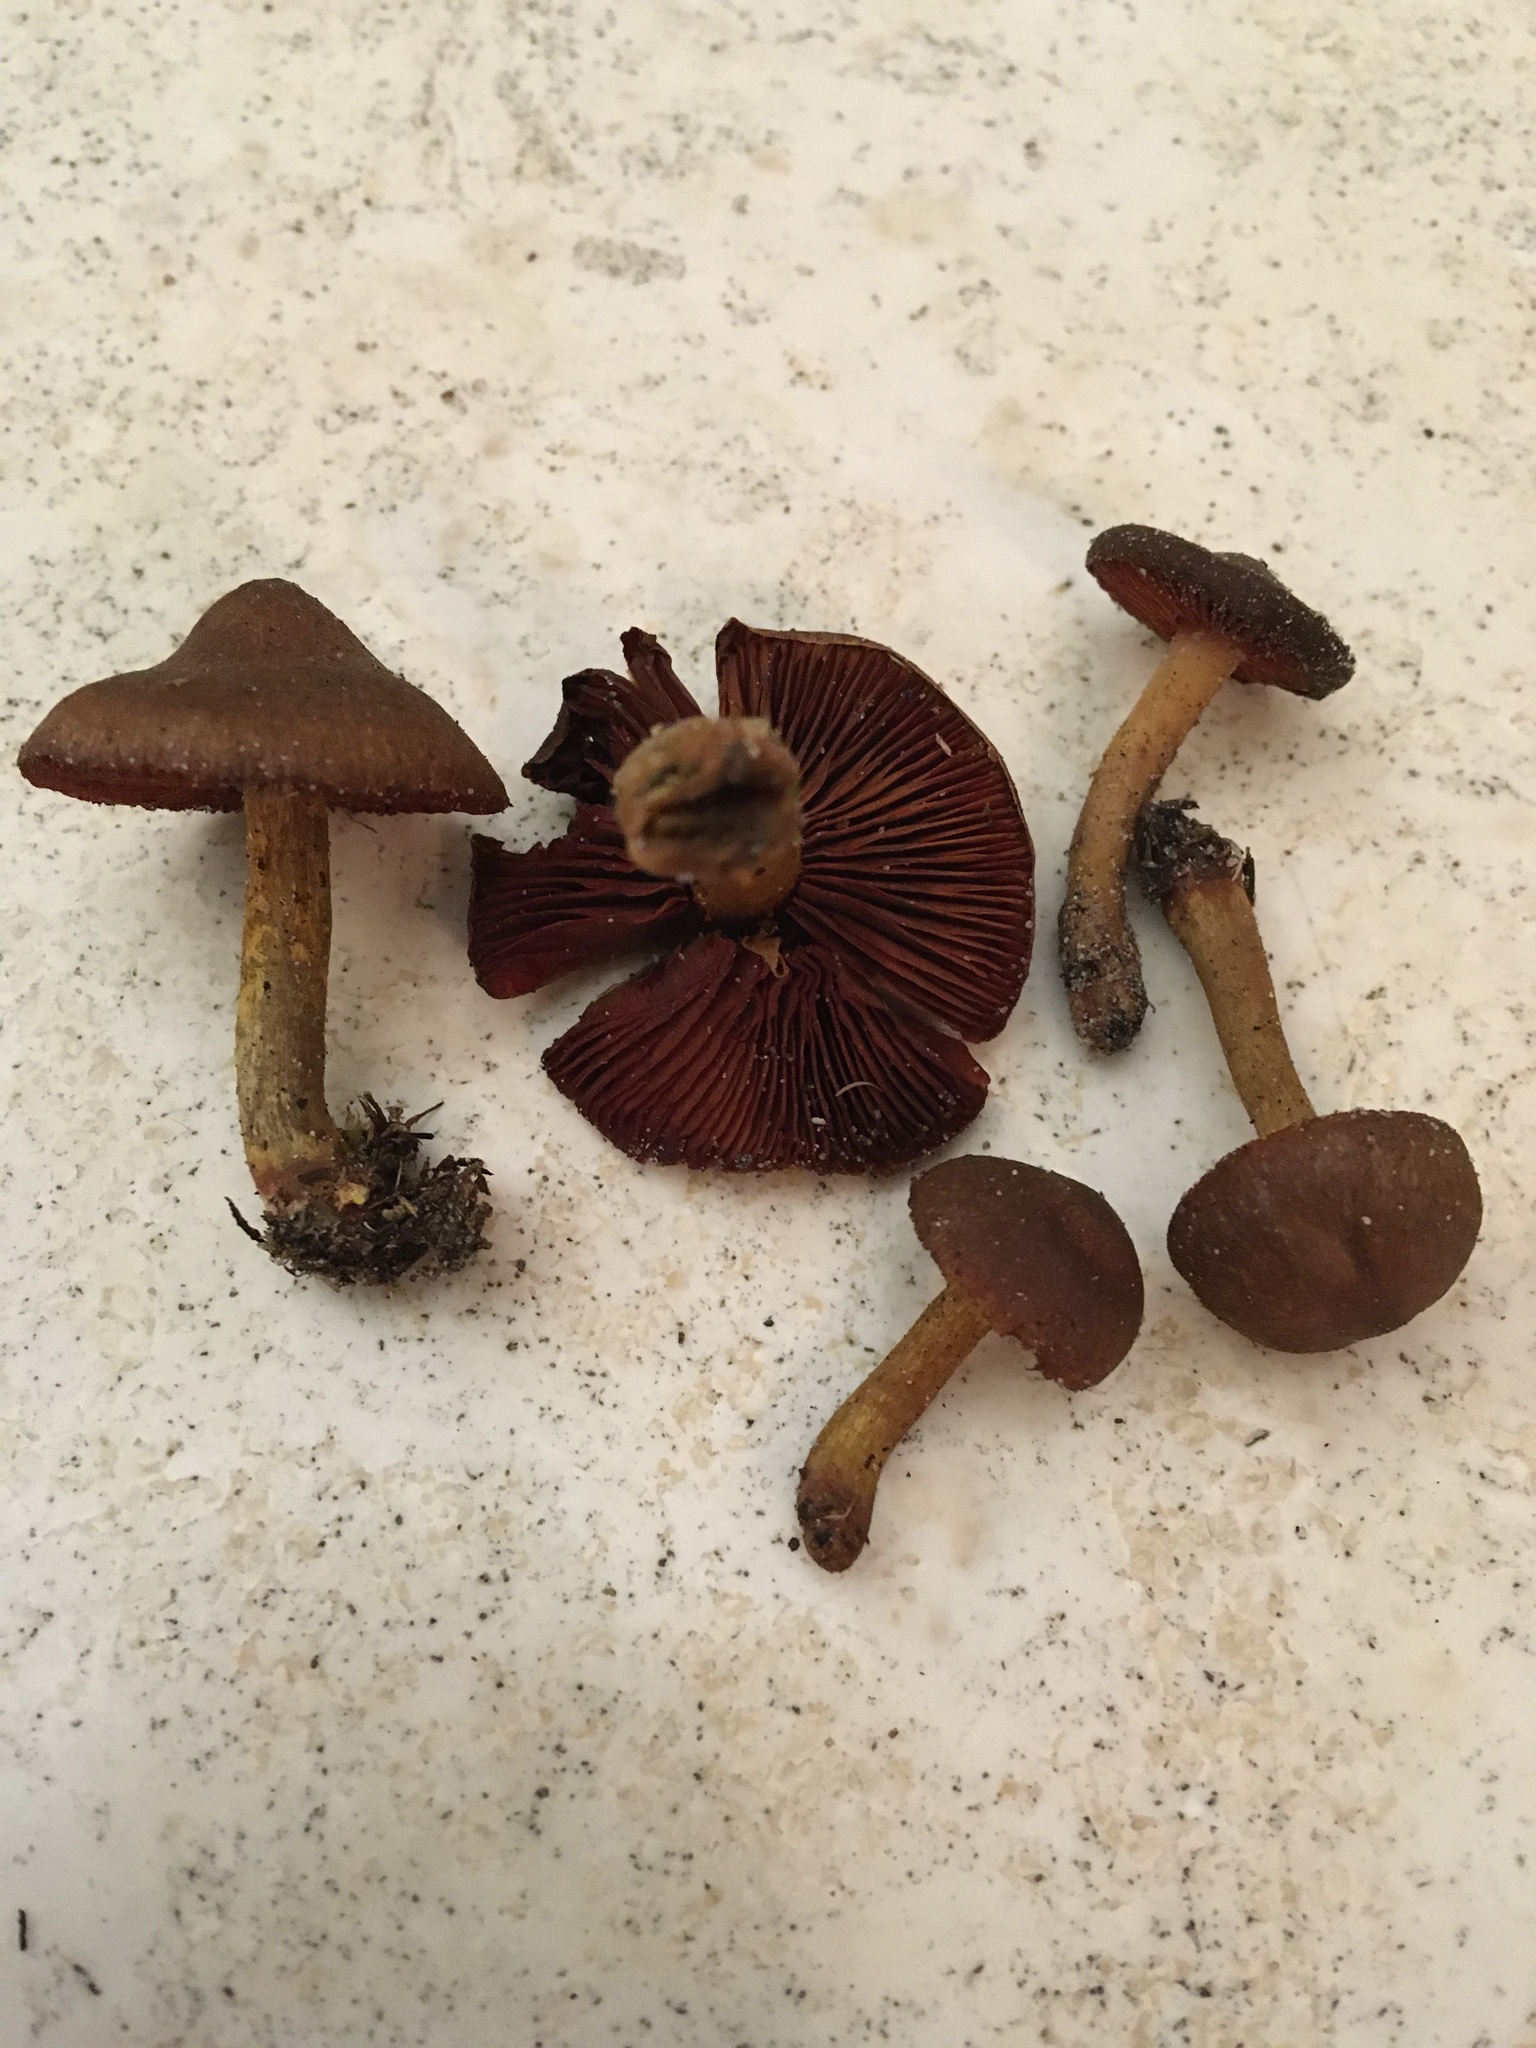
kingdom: Fungi
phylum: Basidiomycota
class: Agaricomycetes
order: Agaricales
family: Cortinariaceae
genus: Cortinarius
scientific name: Cortinarius semisanguineus
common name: Surprise webcap
